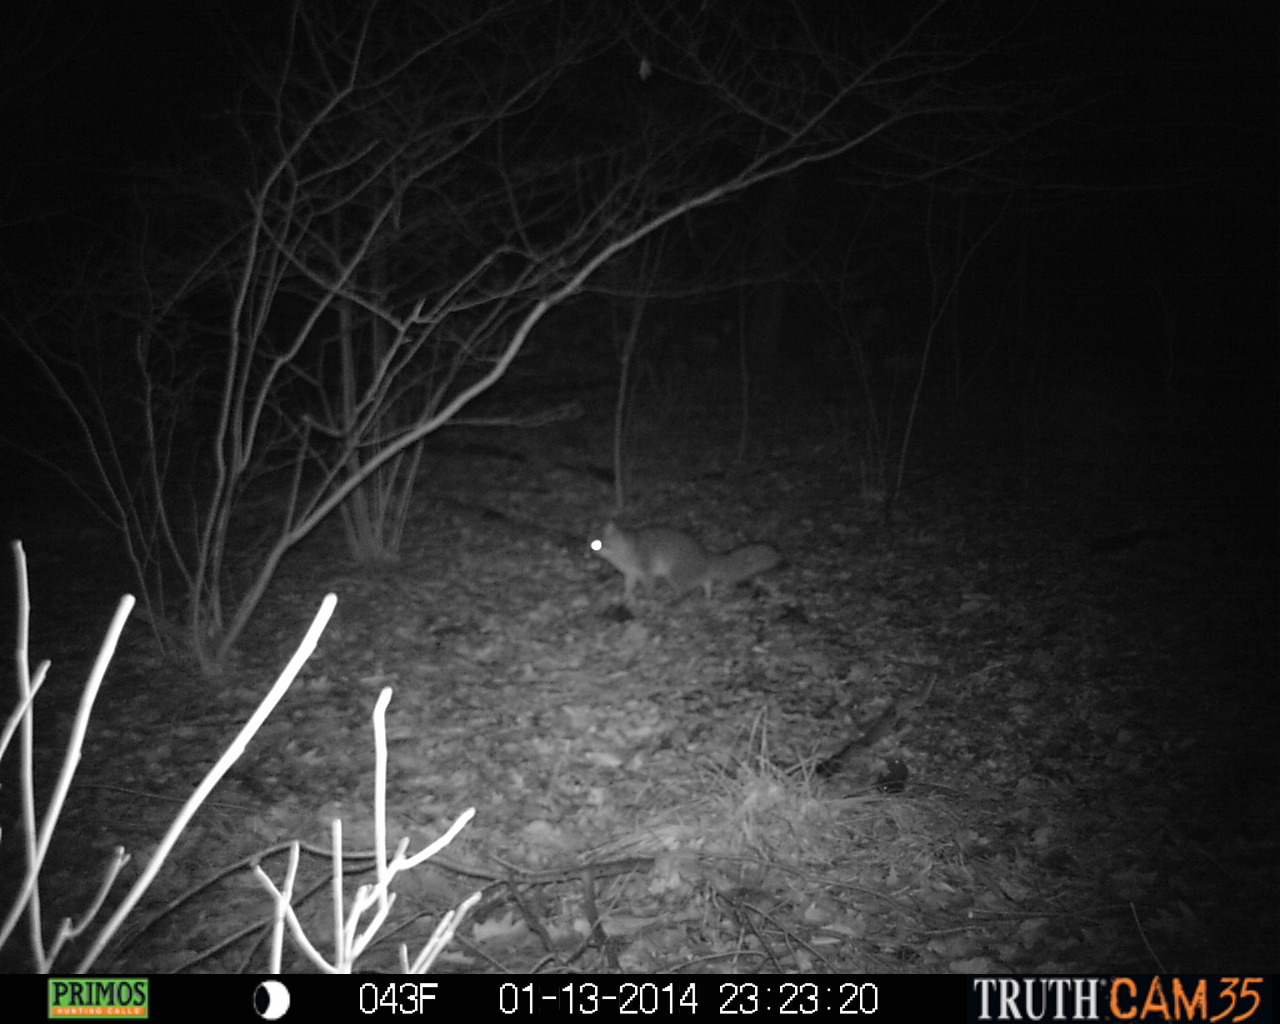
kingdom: Animalia
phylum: Chordata
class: Mammalia
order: Carnivora
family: Canidae
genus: Urocyon
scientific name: Urocyon cinereoargenteus
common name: Gray fox
